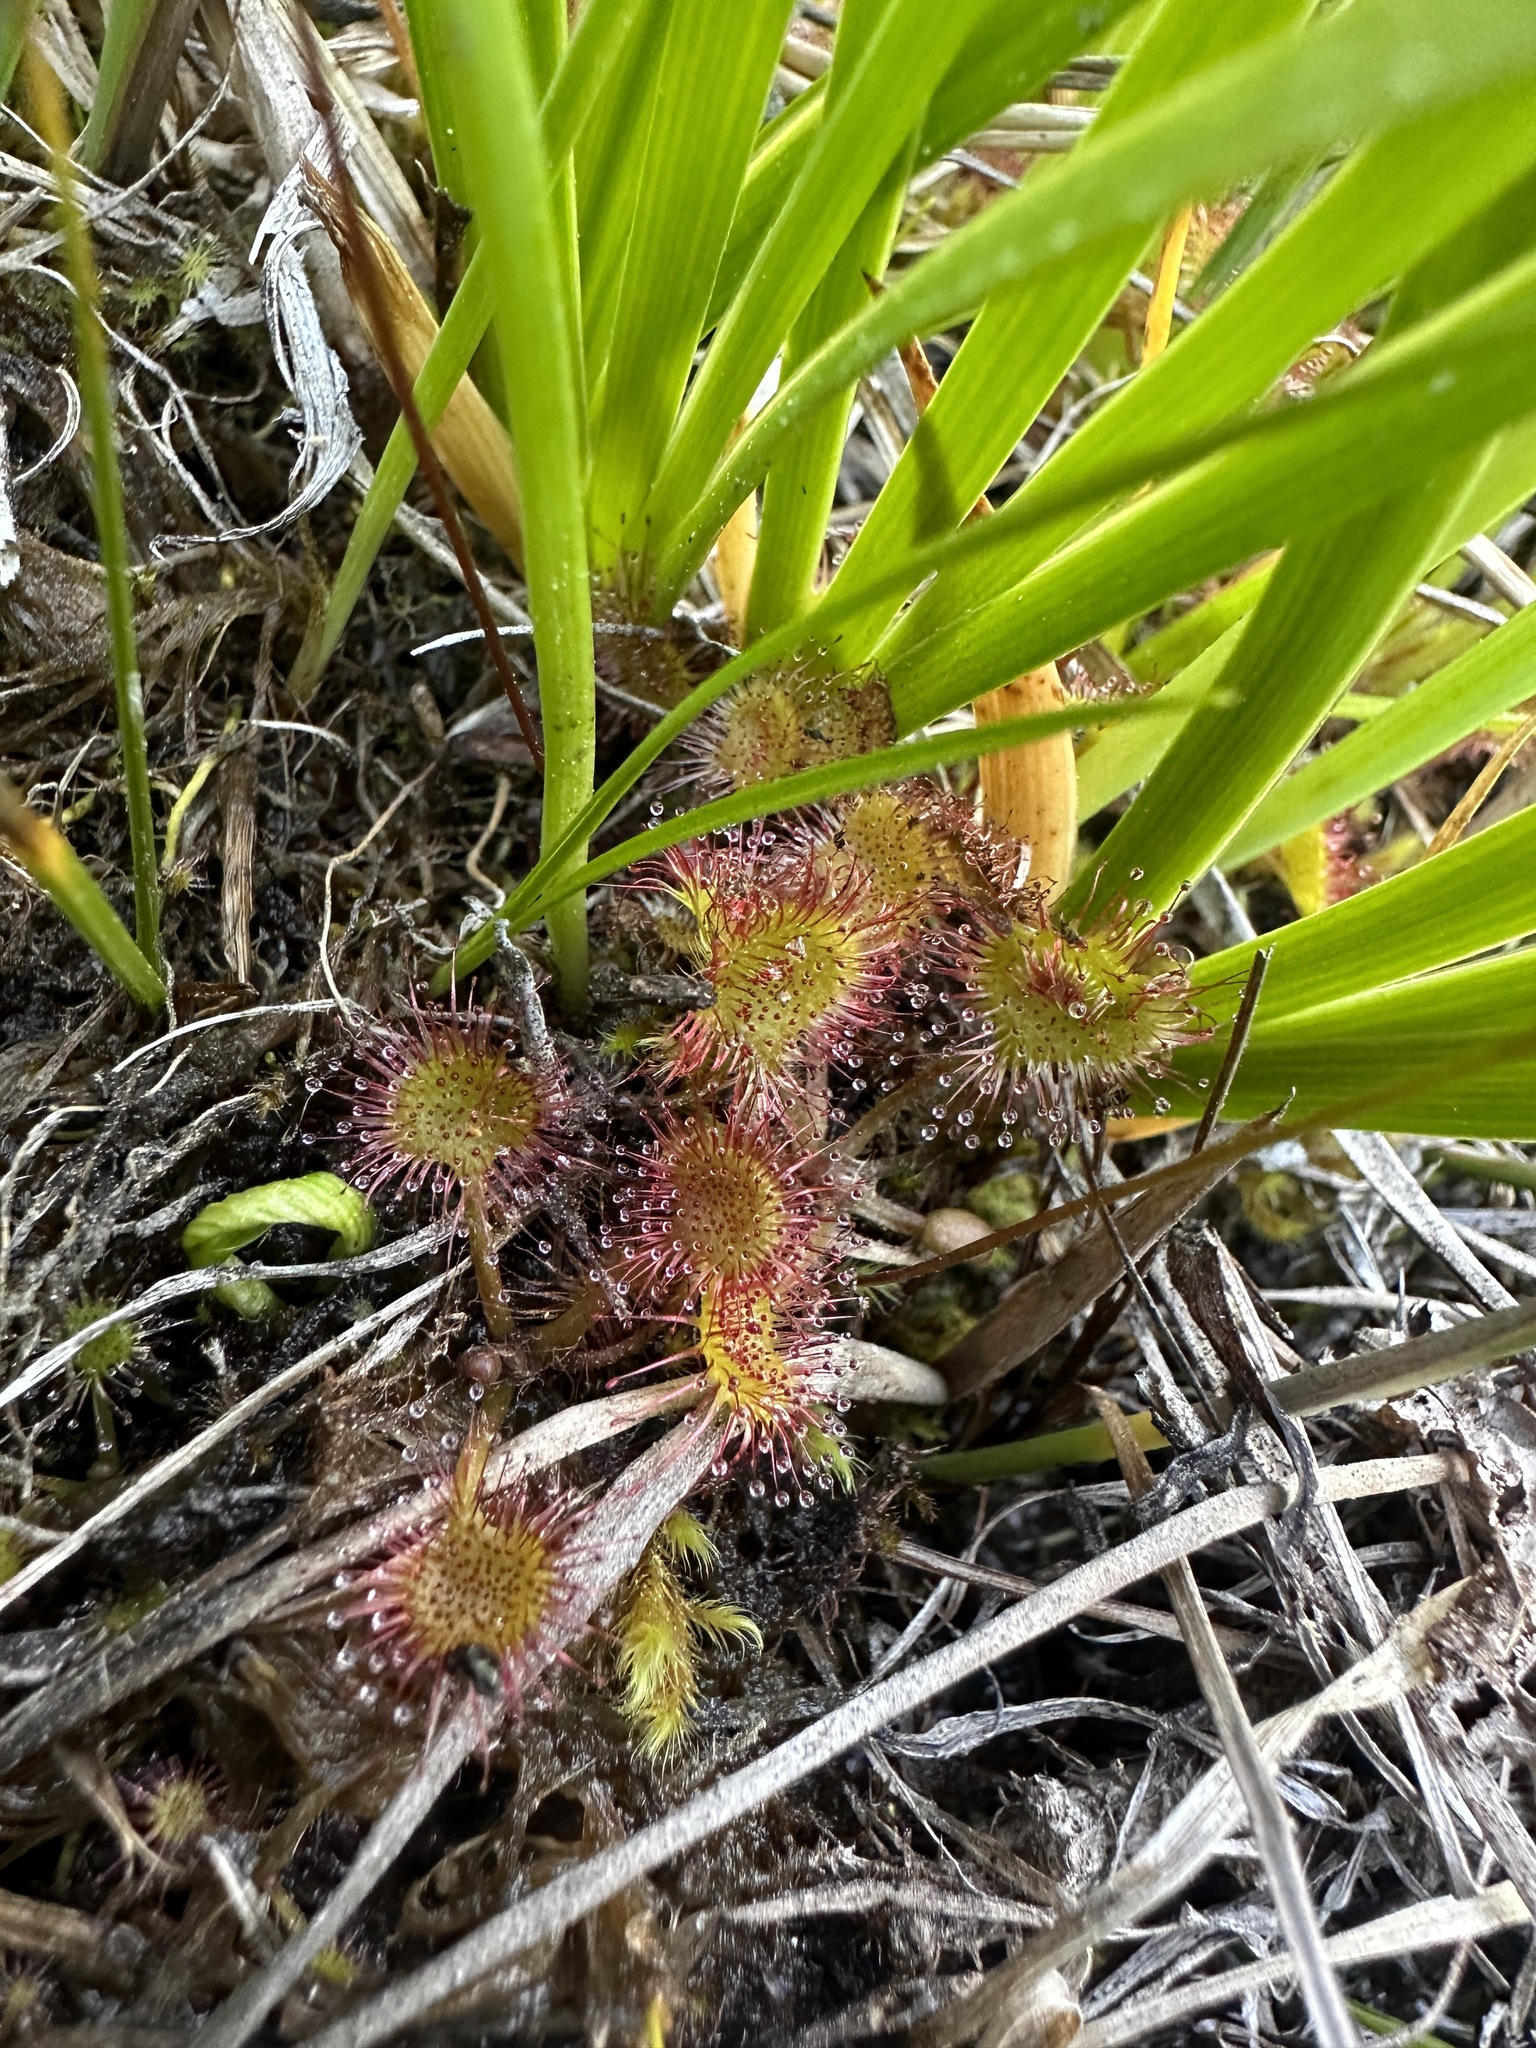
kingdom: Plantae
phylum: Tracheophyta
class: Magnoliopsida
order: Caryophyllales
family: Droseraceae
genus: Drosera
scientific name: Drosera rotundifolia
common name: Round-leaved sundew
